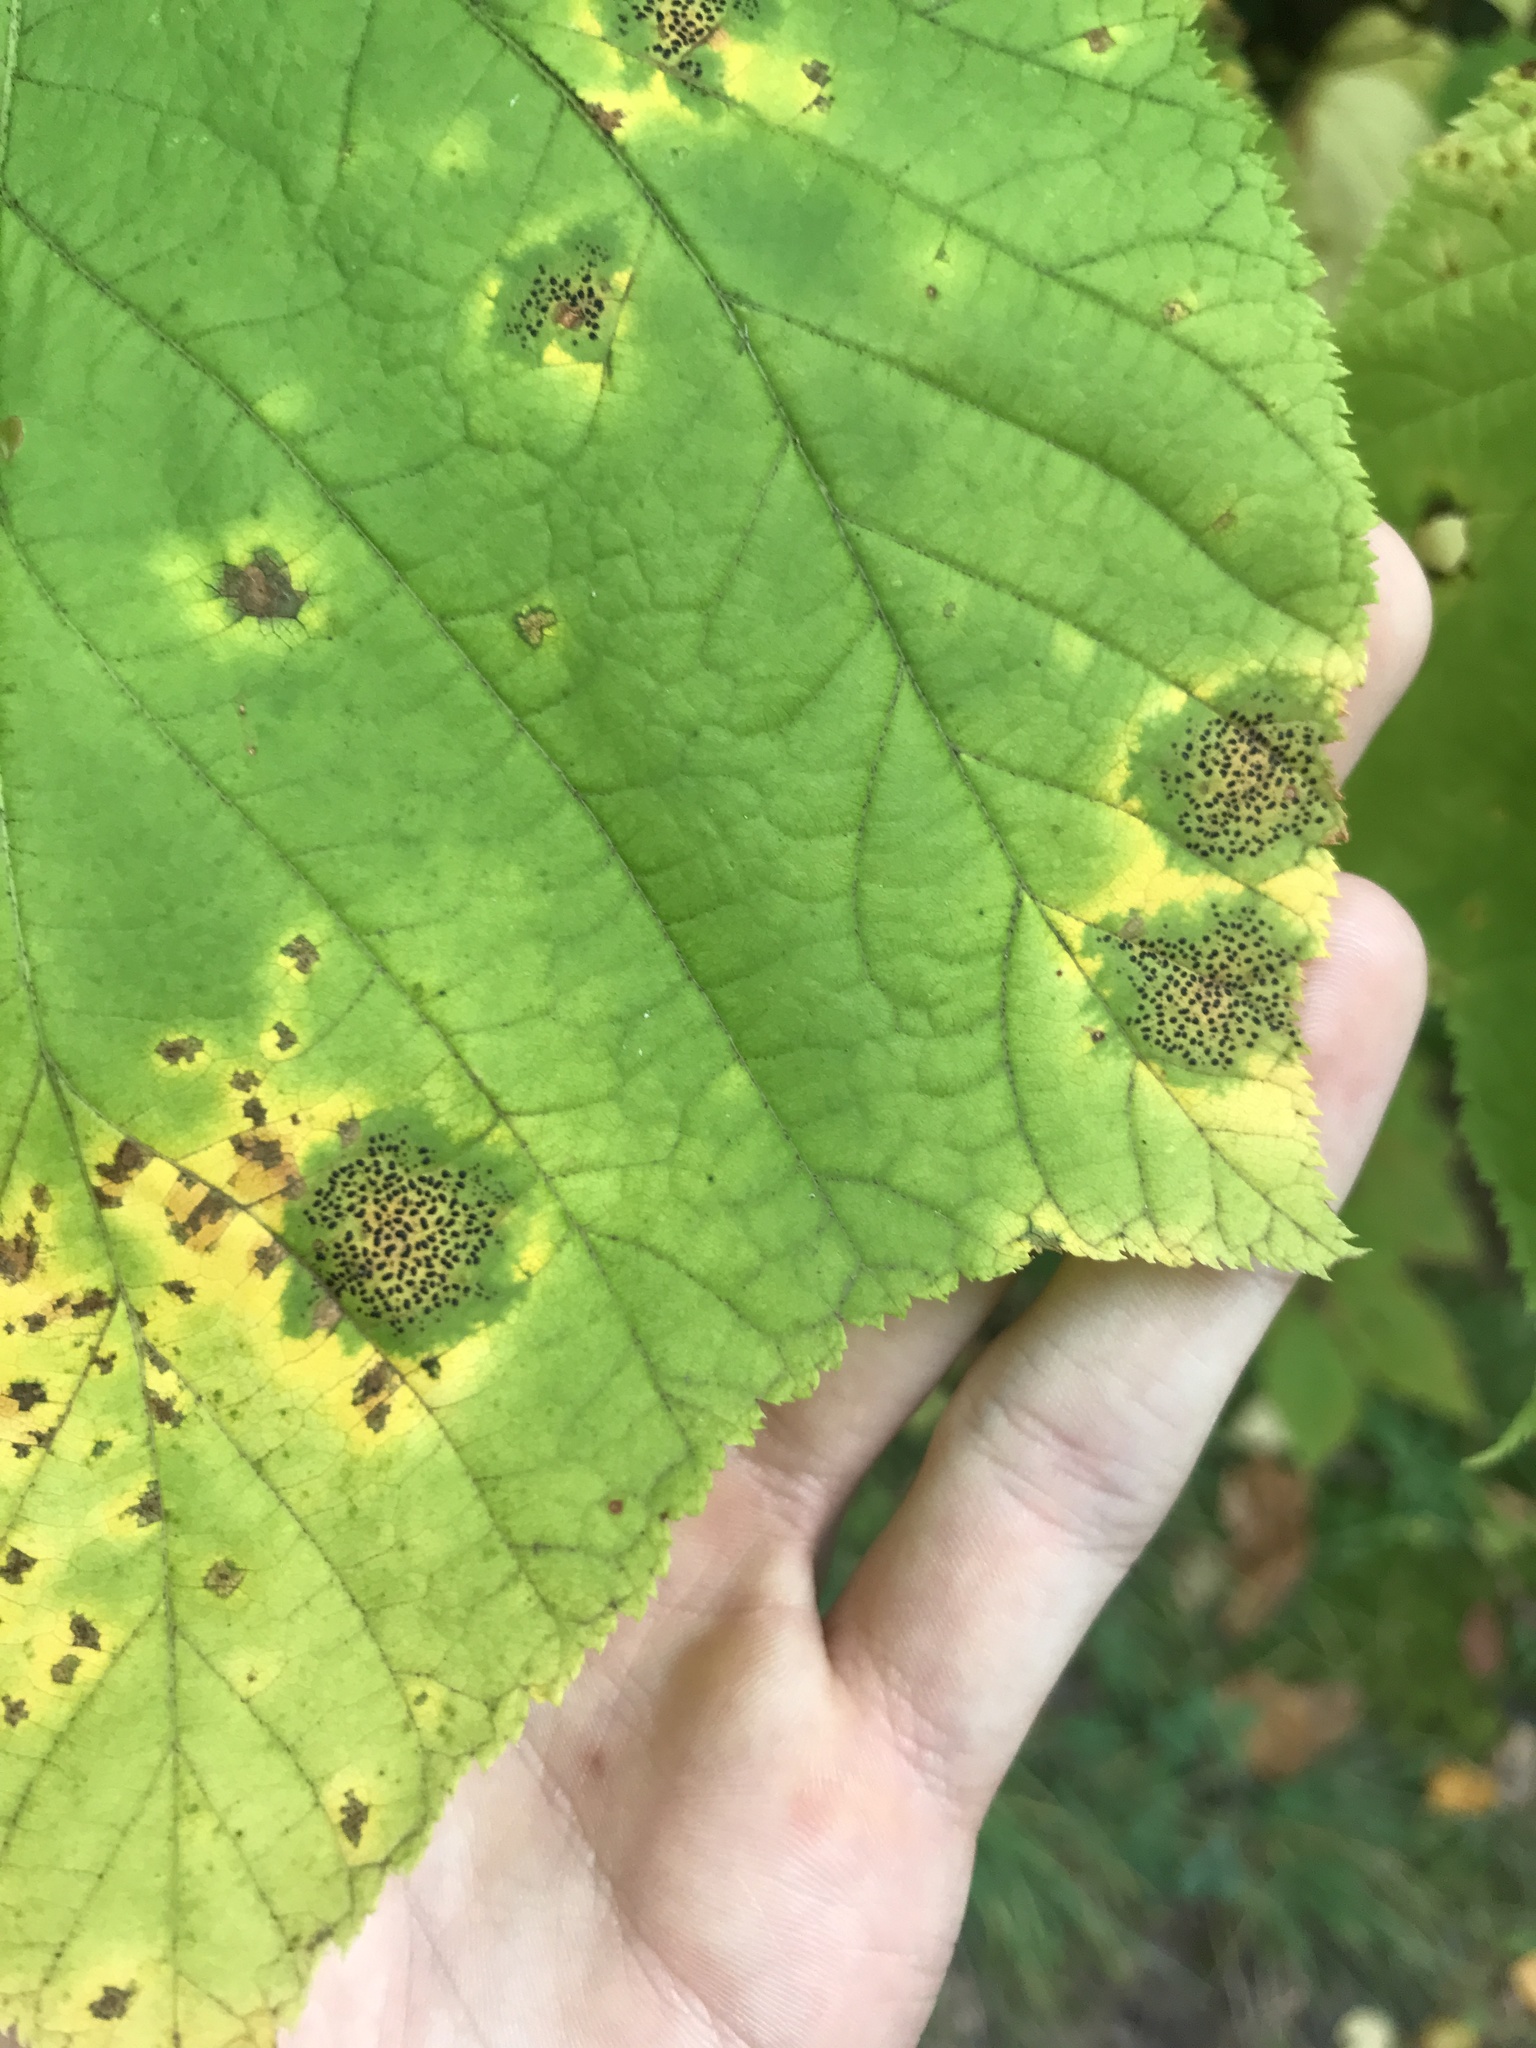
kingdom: Fungi
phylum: Ascomycota
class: Leotiomycetes
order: Rhytismatales
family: Rhytismataceae
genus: Rhytisma
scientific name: Rhytisma punctatum
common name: Speckled tar spot
